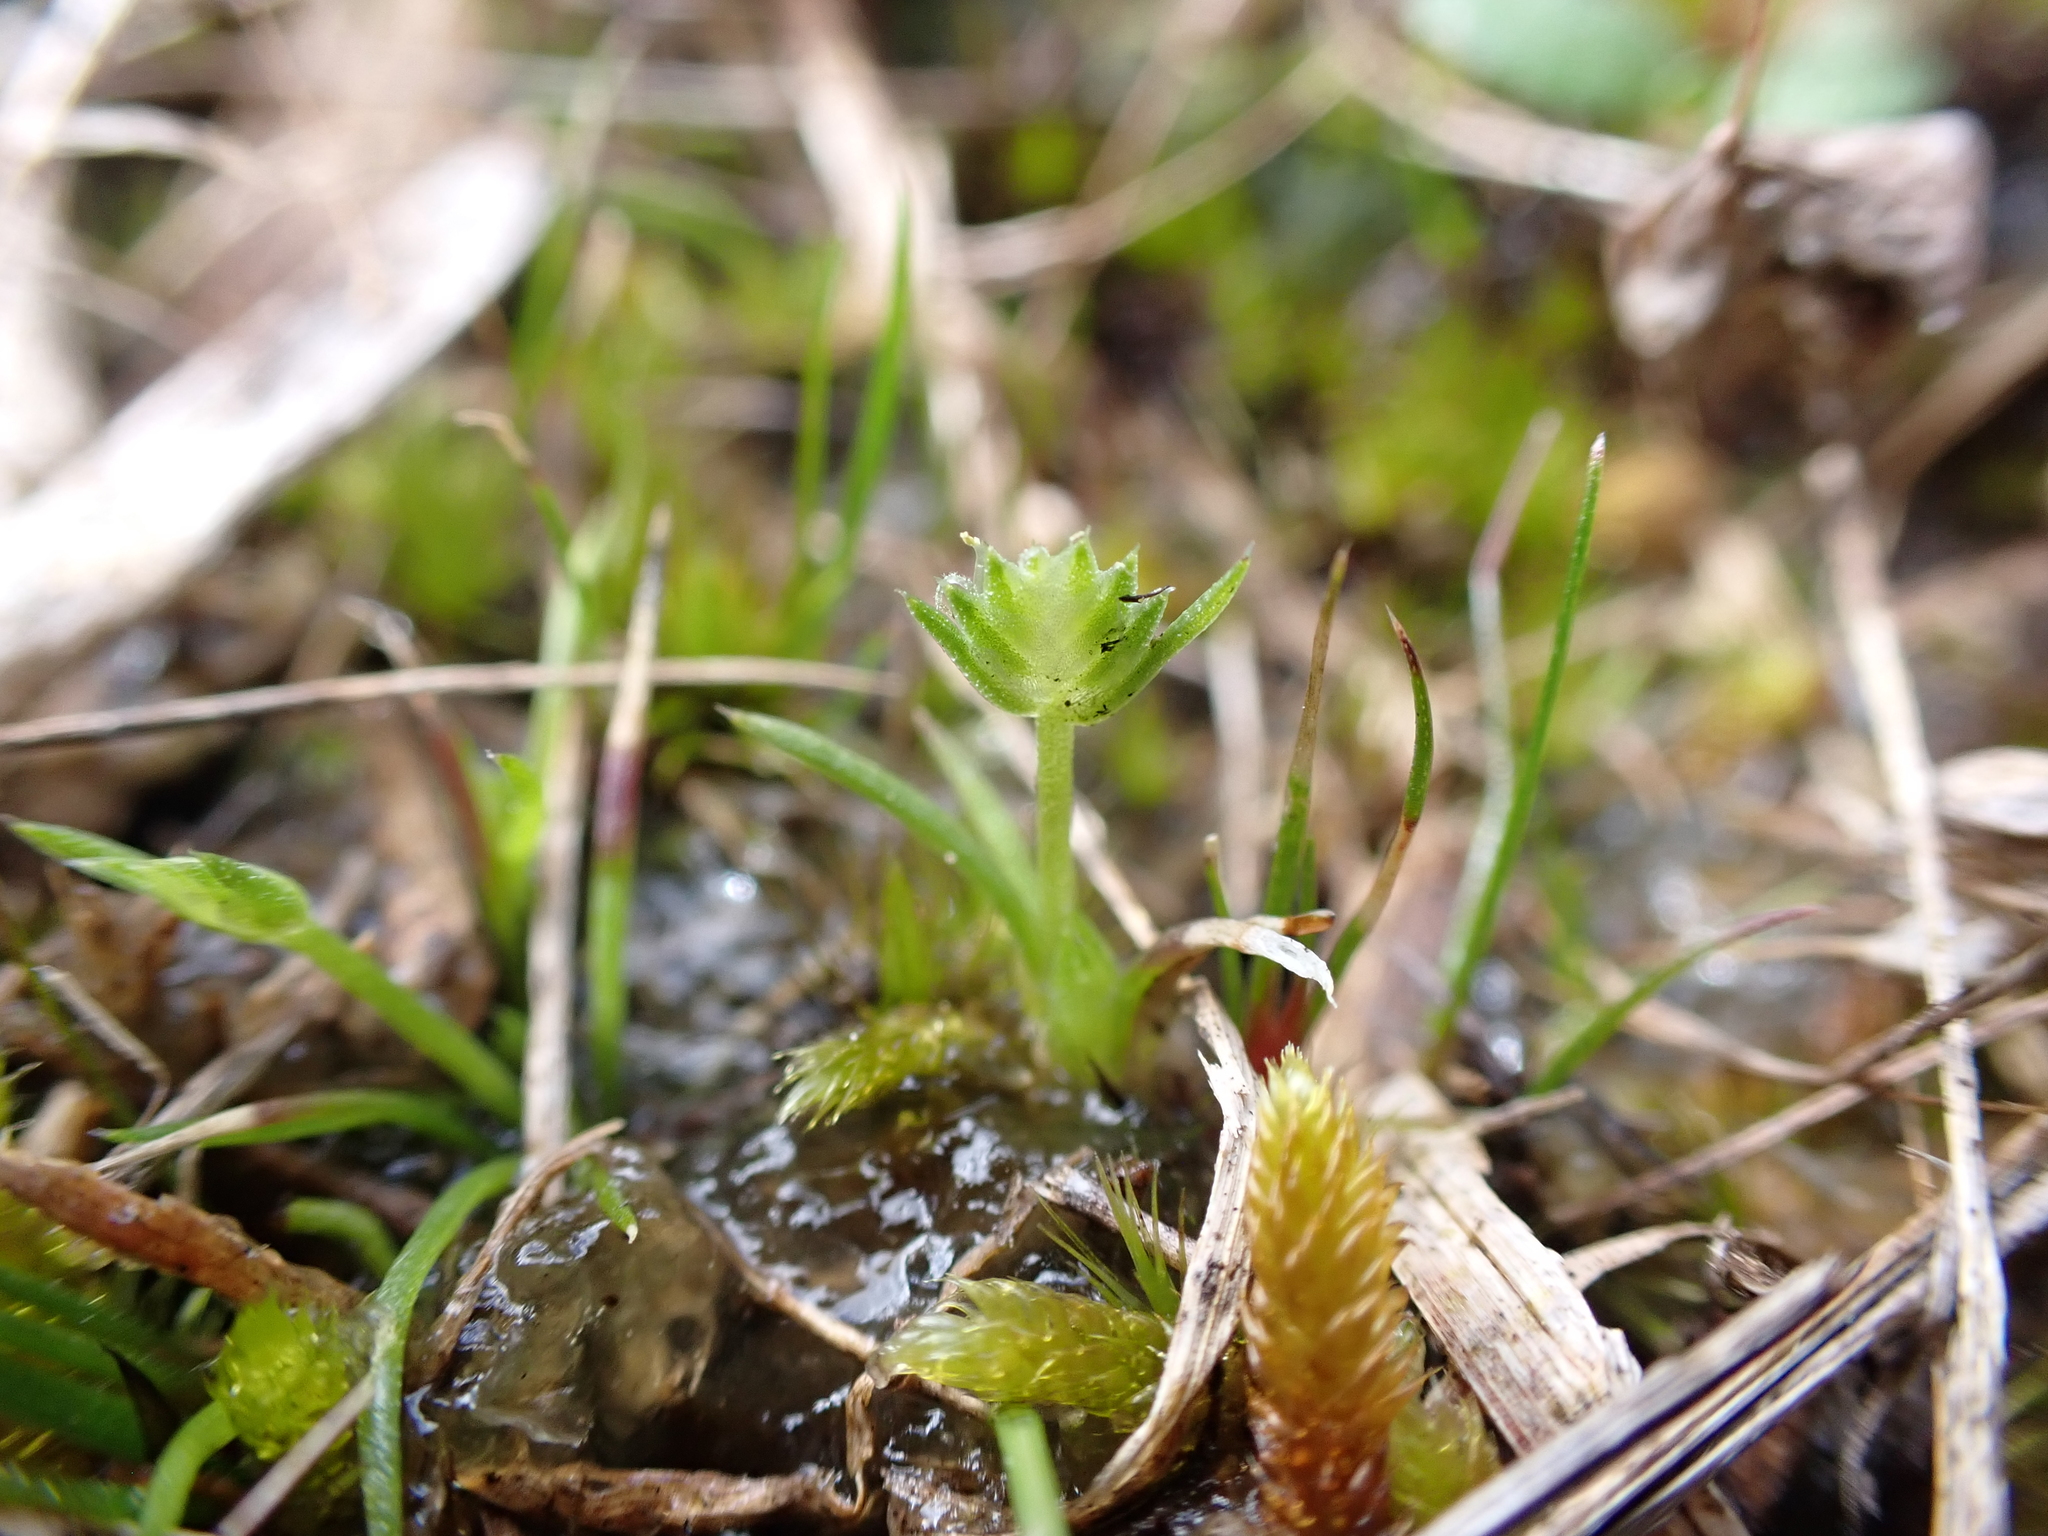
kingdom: Plantae
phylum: Tracheophyta
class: Liliopsida
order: Poales
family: Restionaceae
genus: Aphelia
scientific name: Aphelia pumilio
